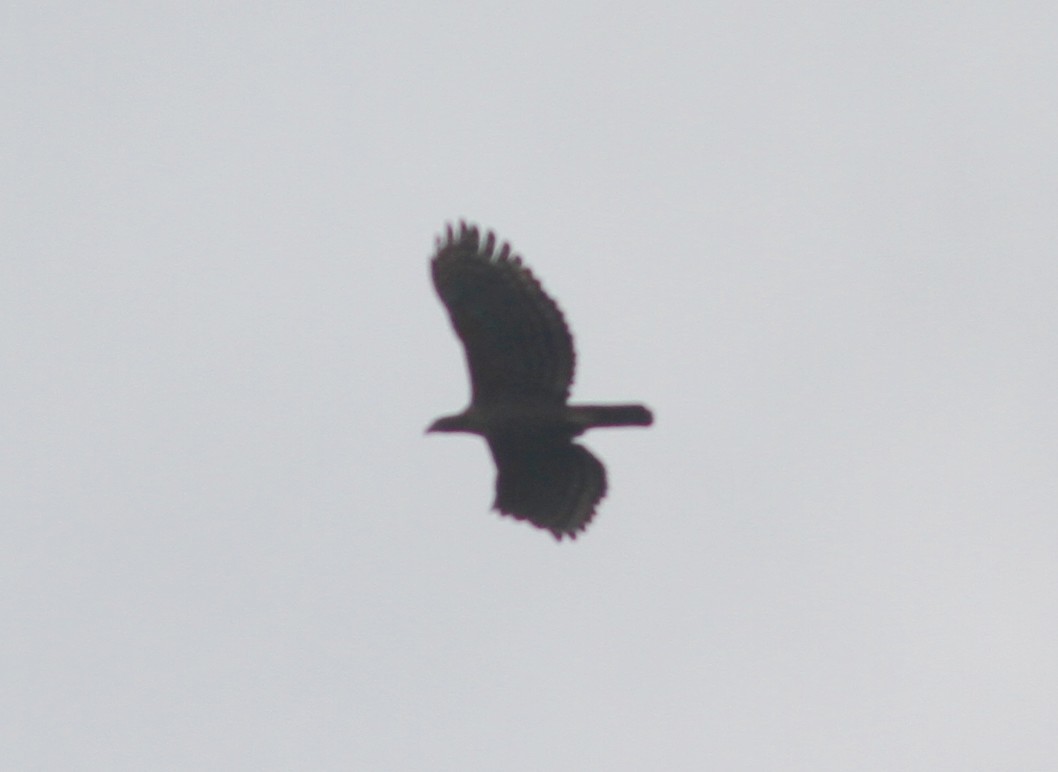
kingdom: Animalia
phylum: Chordata
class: Aves
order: Accipitriformes
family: Accipitridae
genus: Nisaetus
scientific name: Nisaetus kelaarti
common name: Legge's hawk-eagle
